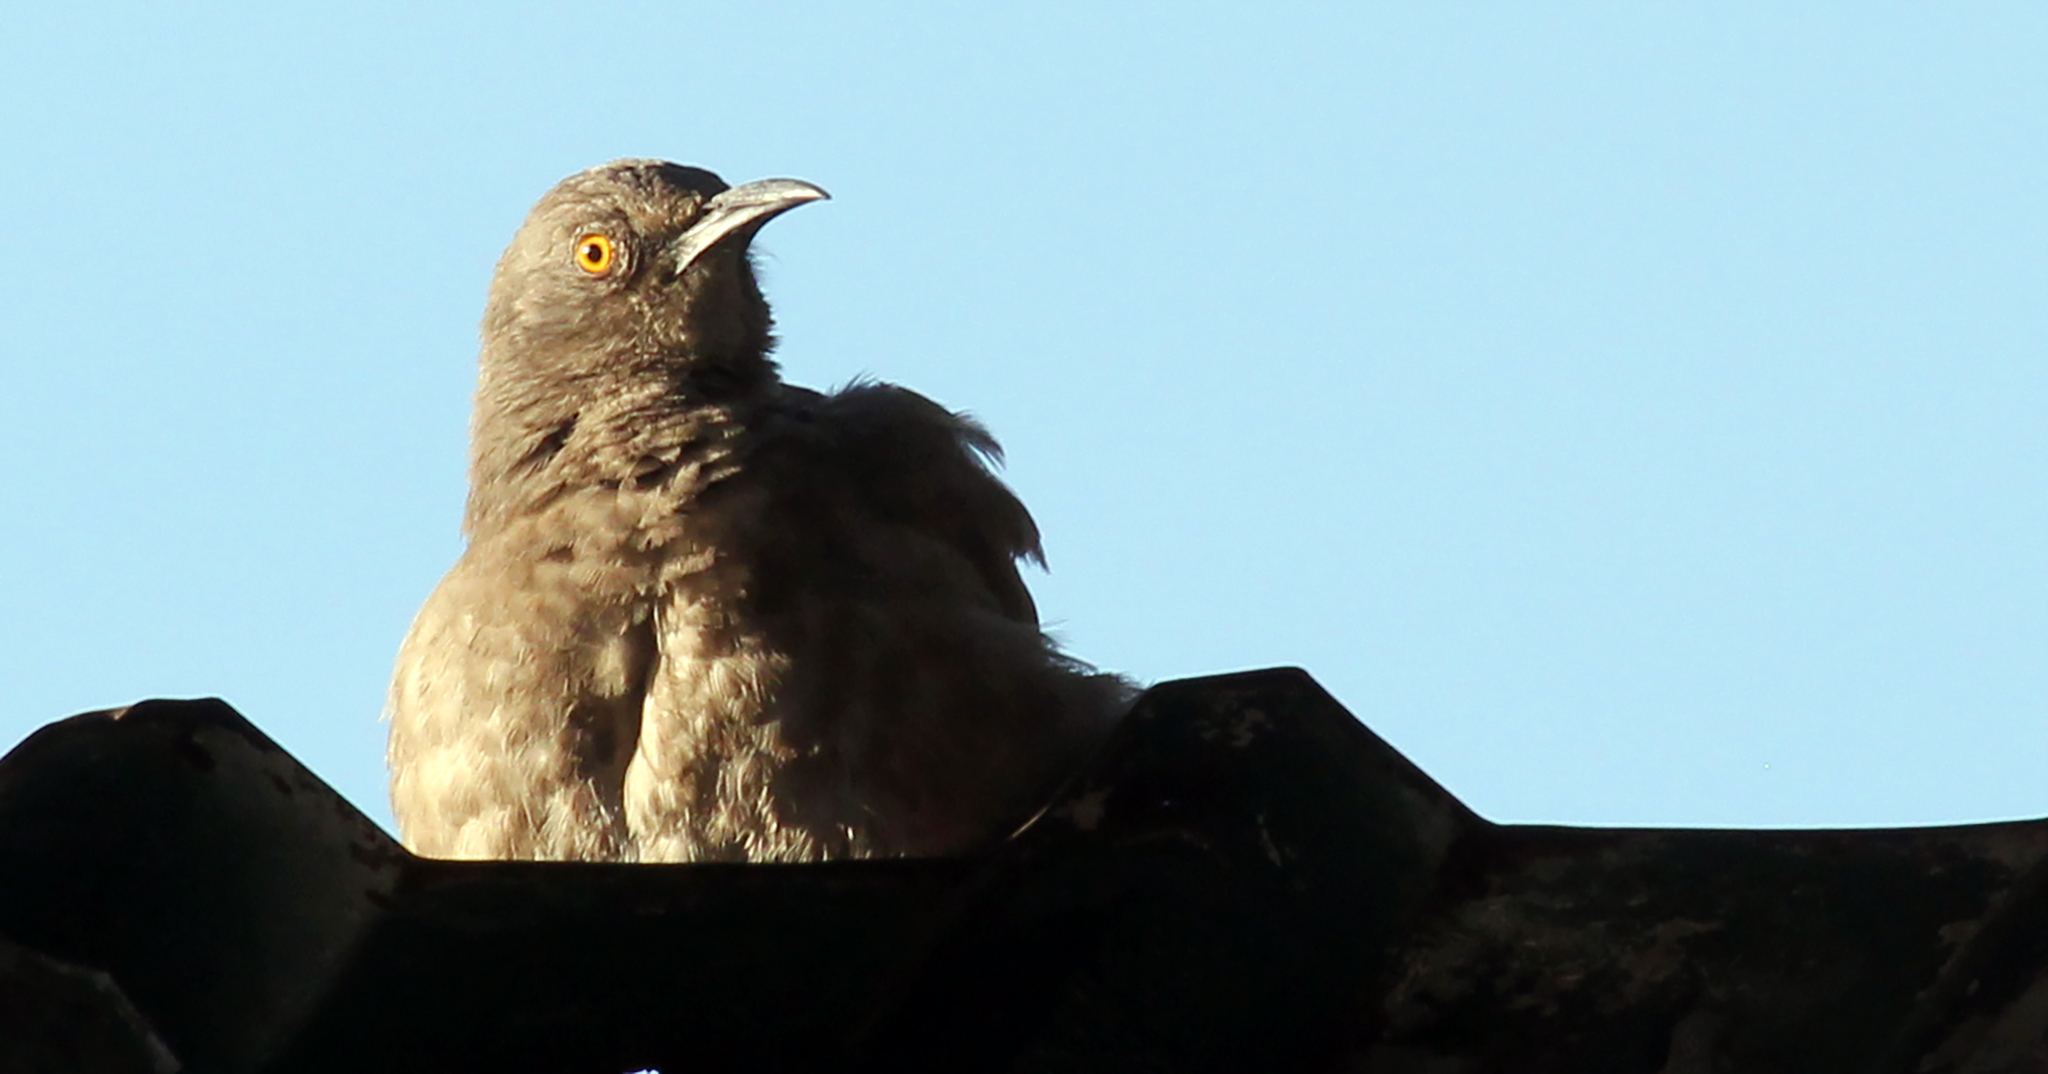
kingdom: Animalia
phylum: Chordata
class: Aves
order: Passeriformes
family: Mimidae
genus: Toxostoma
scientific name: Toxostoma curvirostre
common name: Curve-billed thrasher
